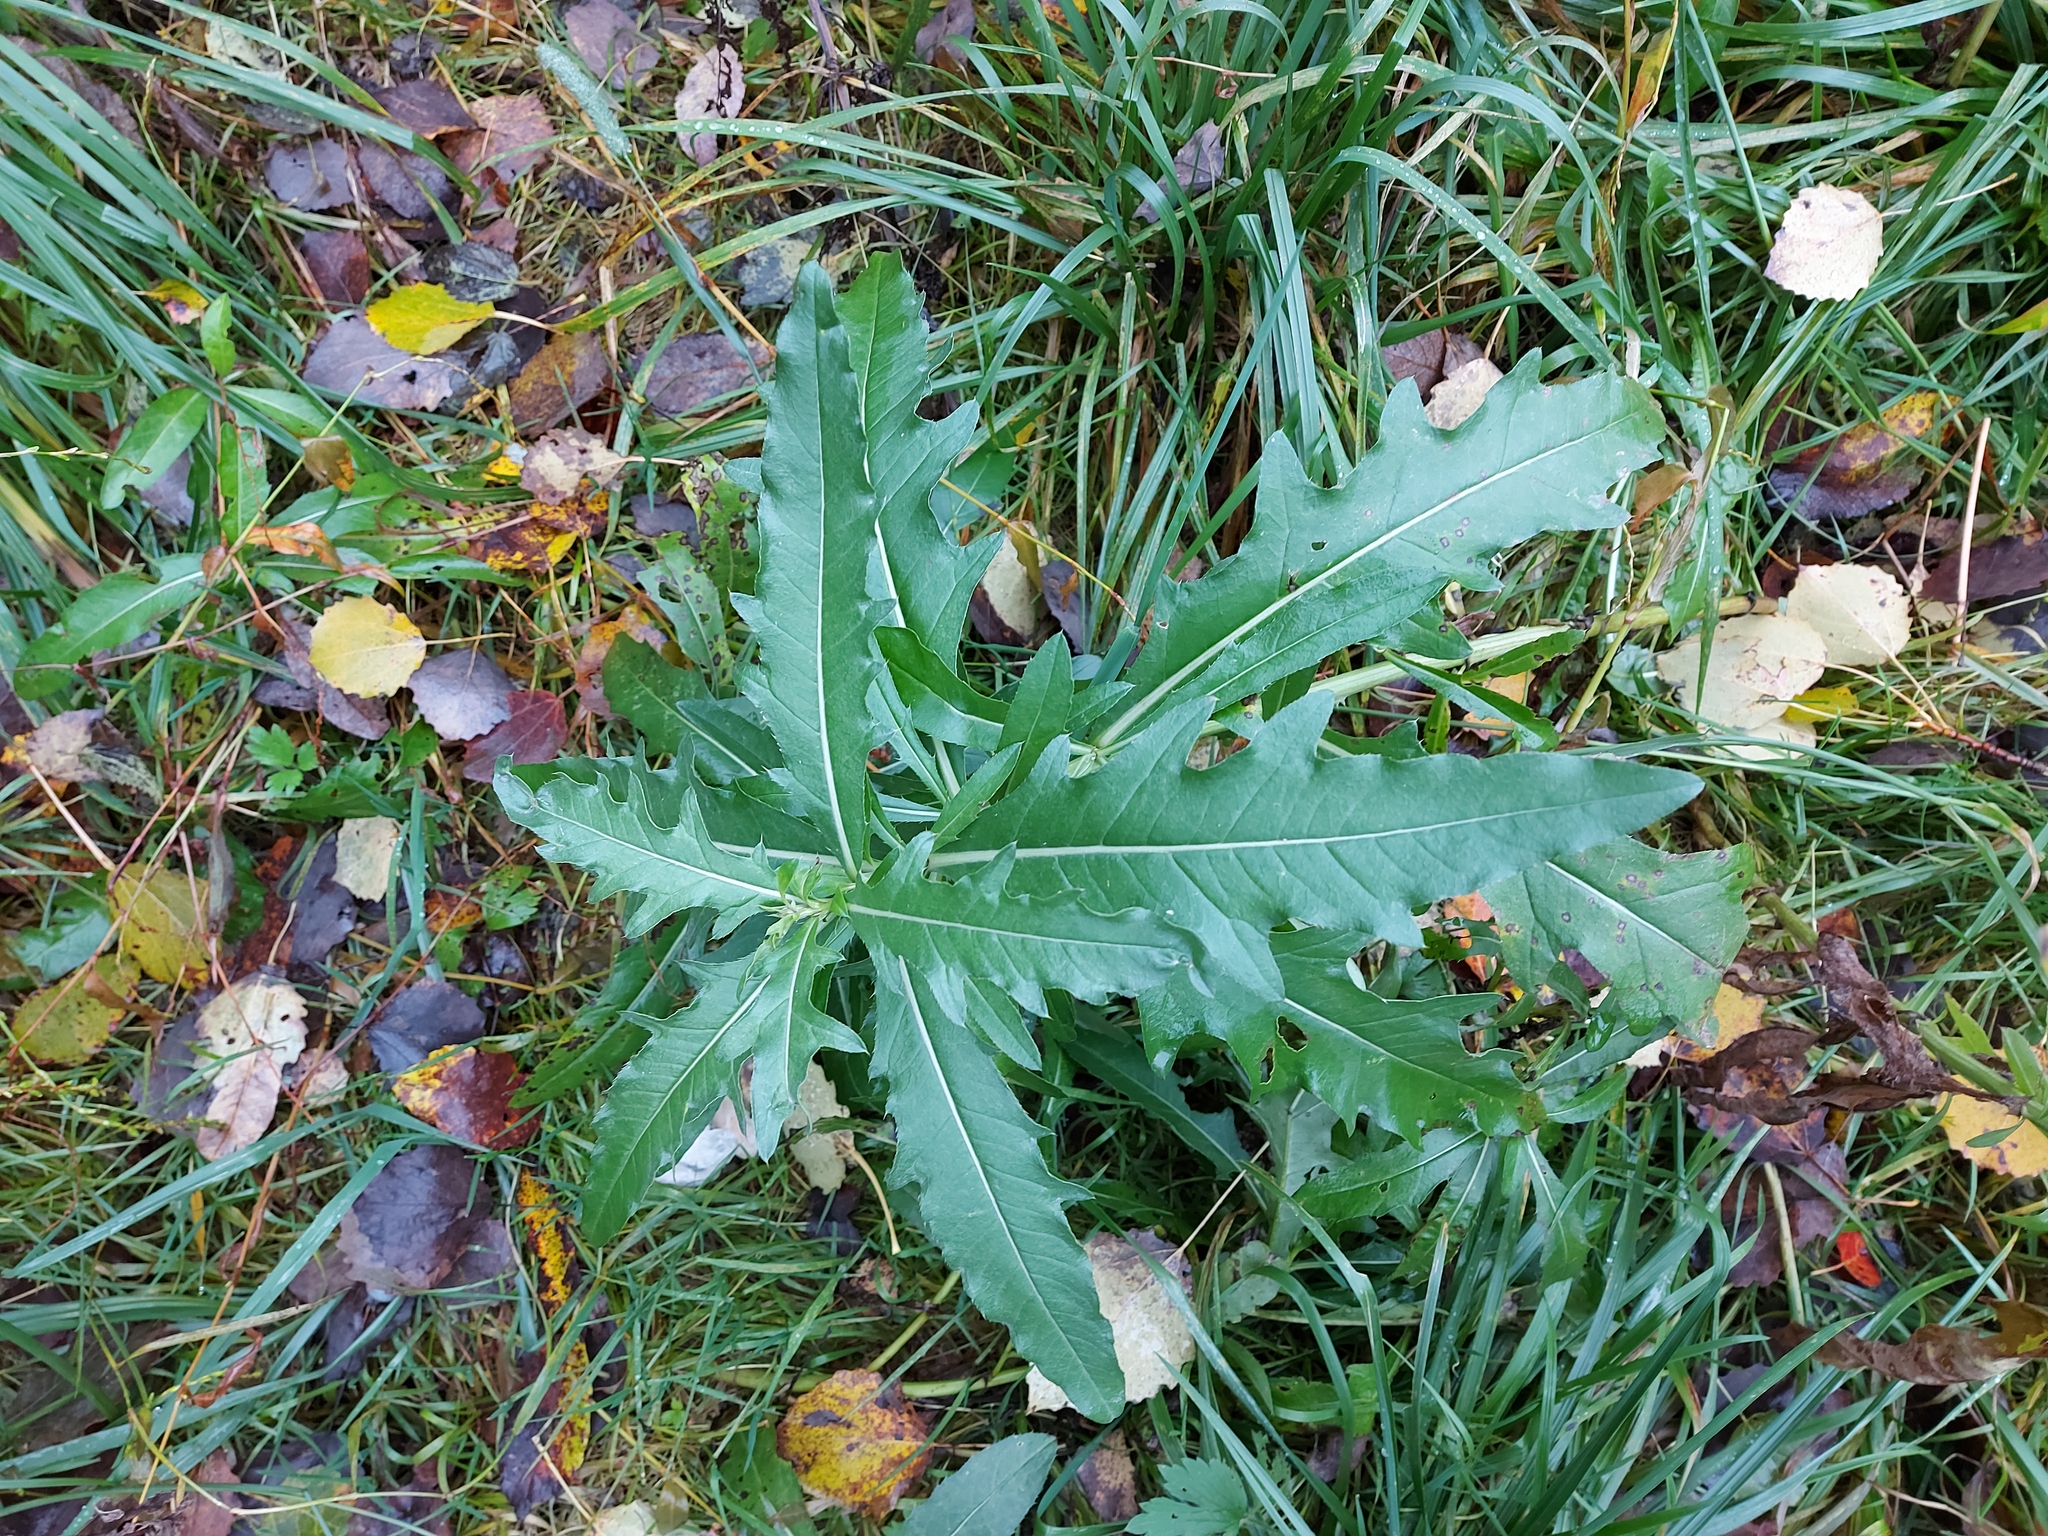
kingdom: Plantae
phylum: Tracheophyta
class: Magnoliopsida
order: Asterales
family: Asteraceae
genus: Cirsium
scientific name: Cirsium arvense
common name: Creeping thistle
